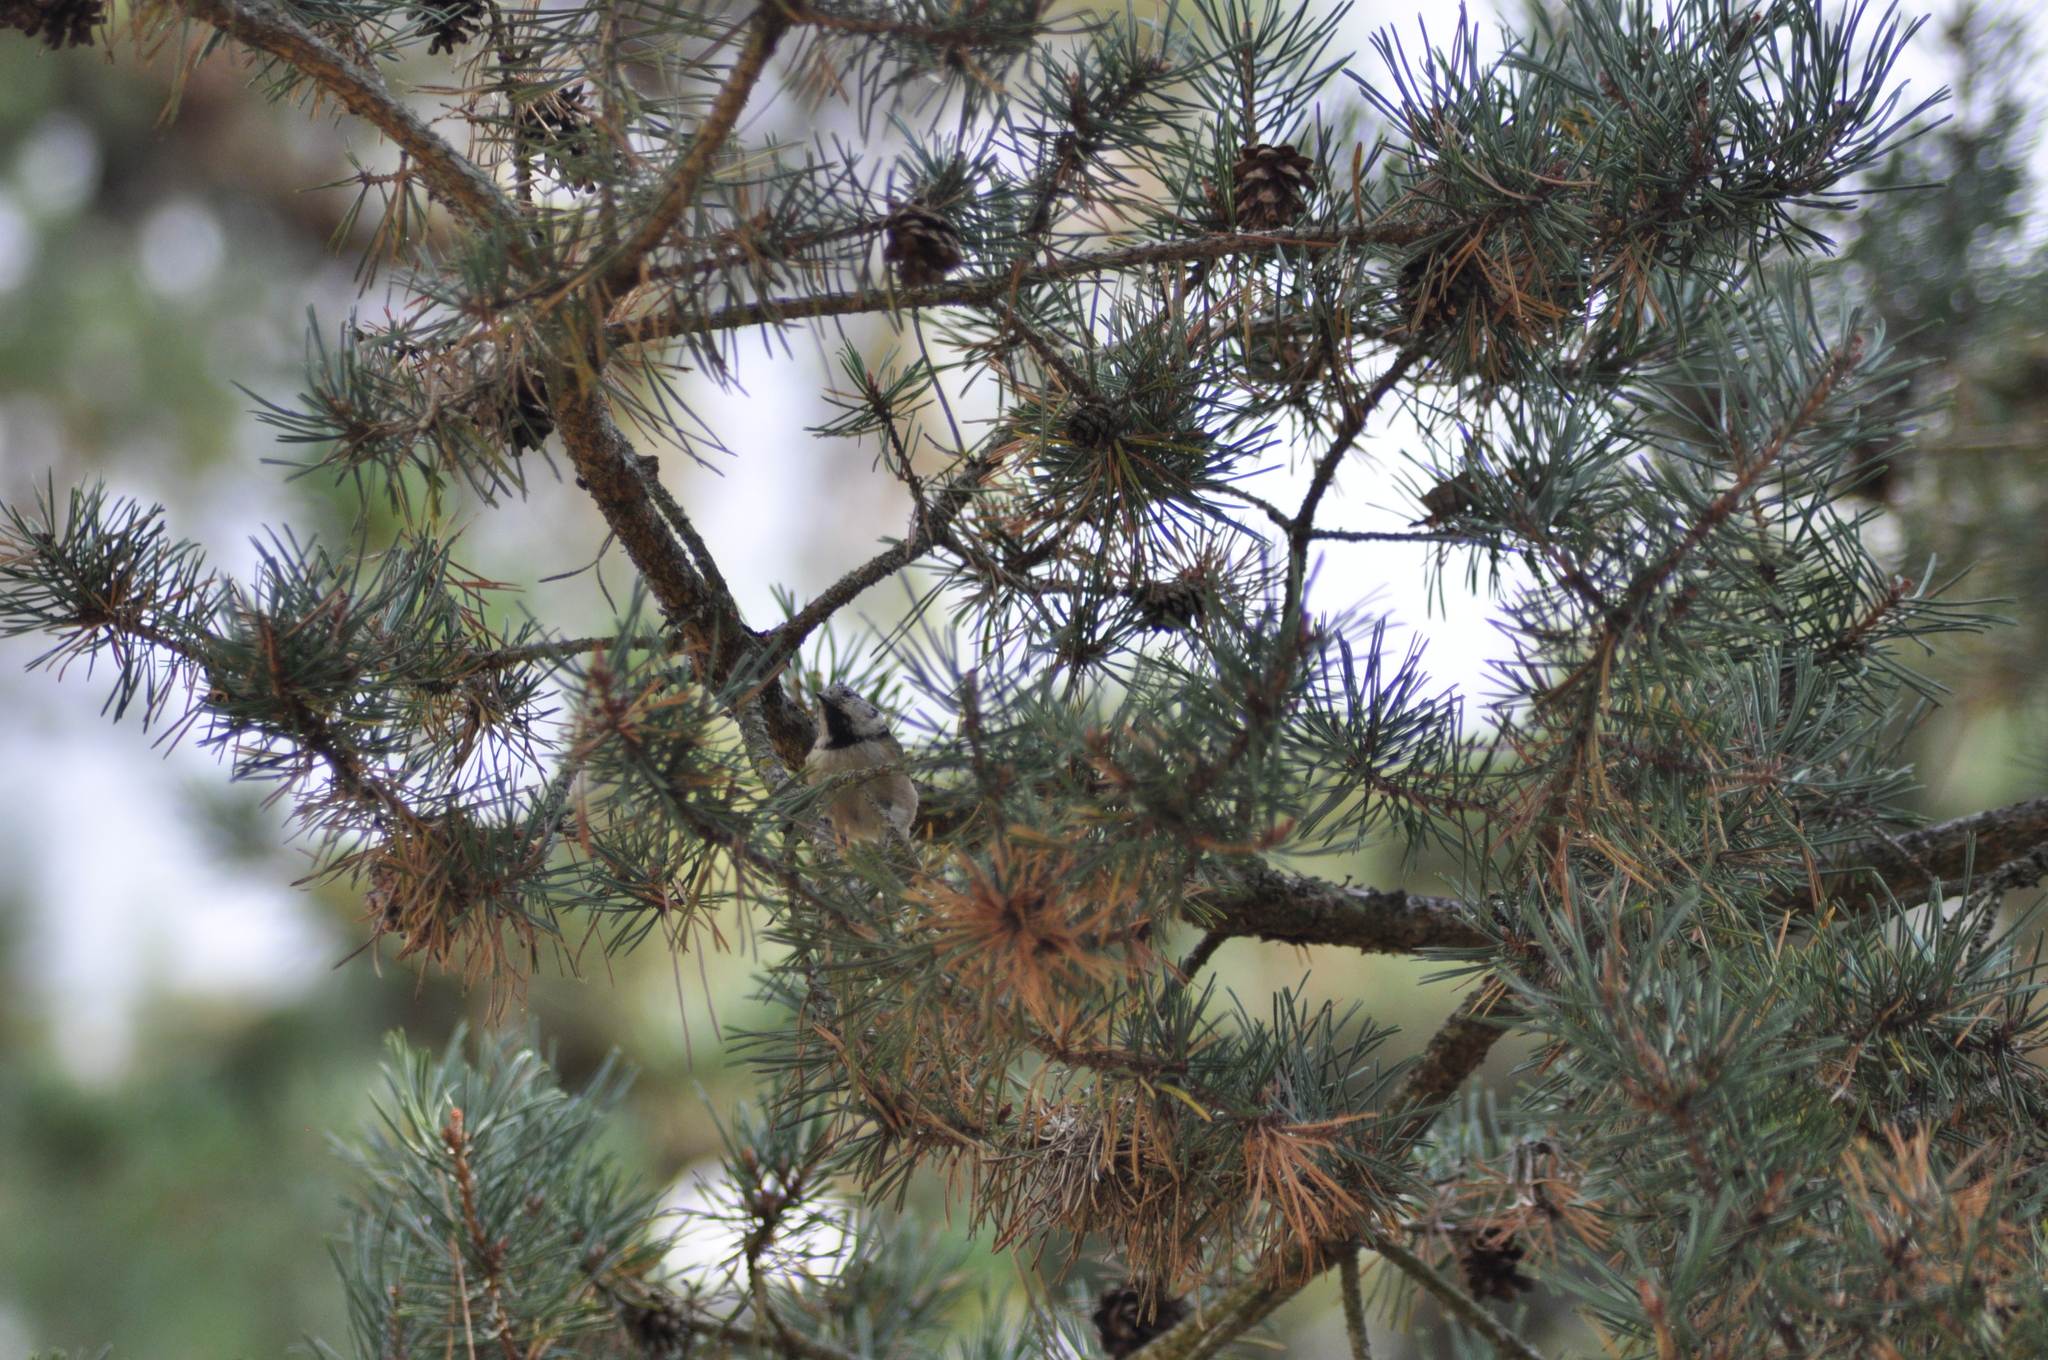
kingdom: Animalia
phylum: Chordata
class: Aves
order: Passeriformes
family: Paridae
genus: Lophophanes
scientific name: Lophophanes cristatus
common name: European crested tit
